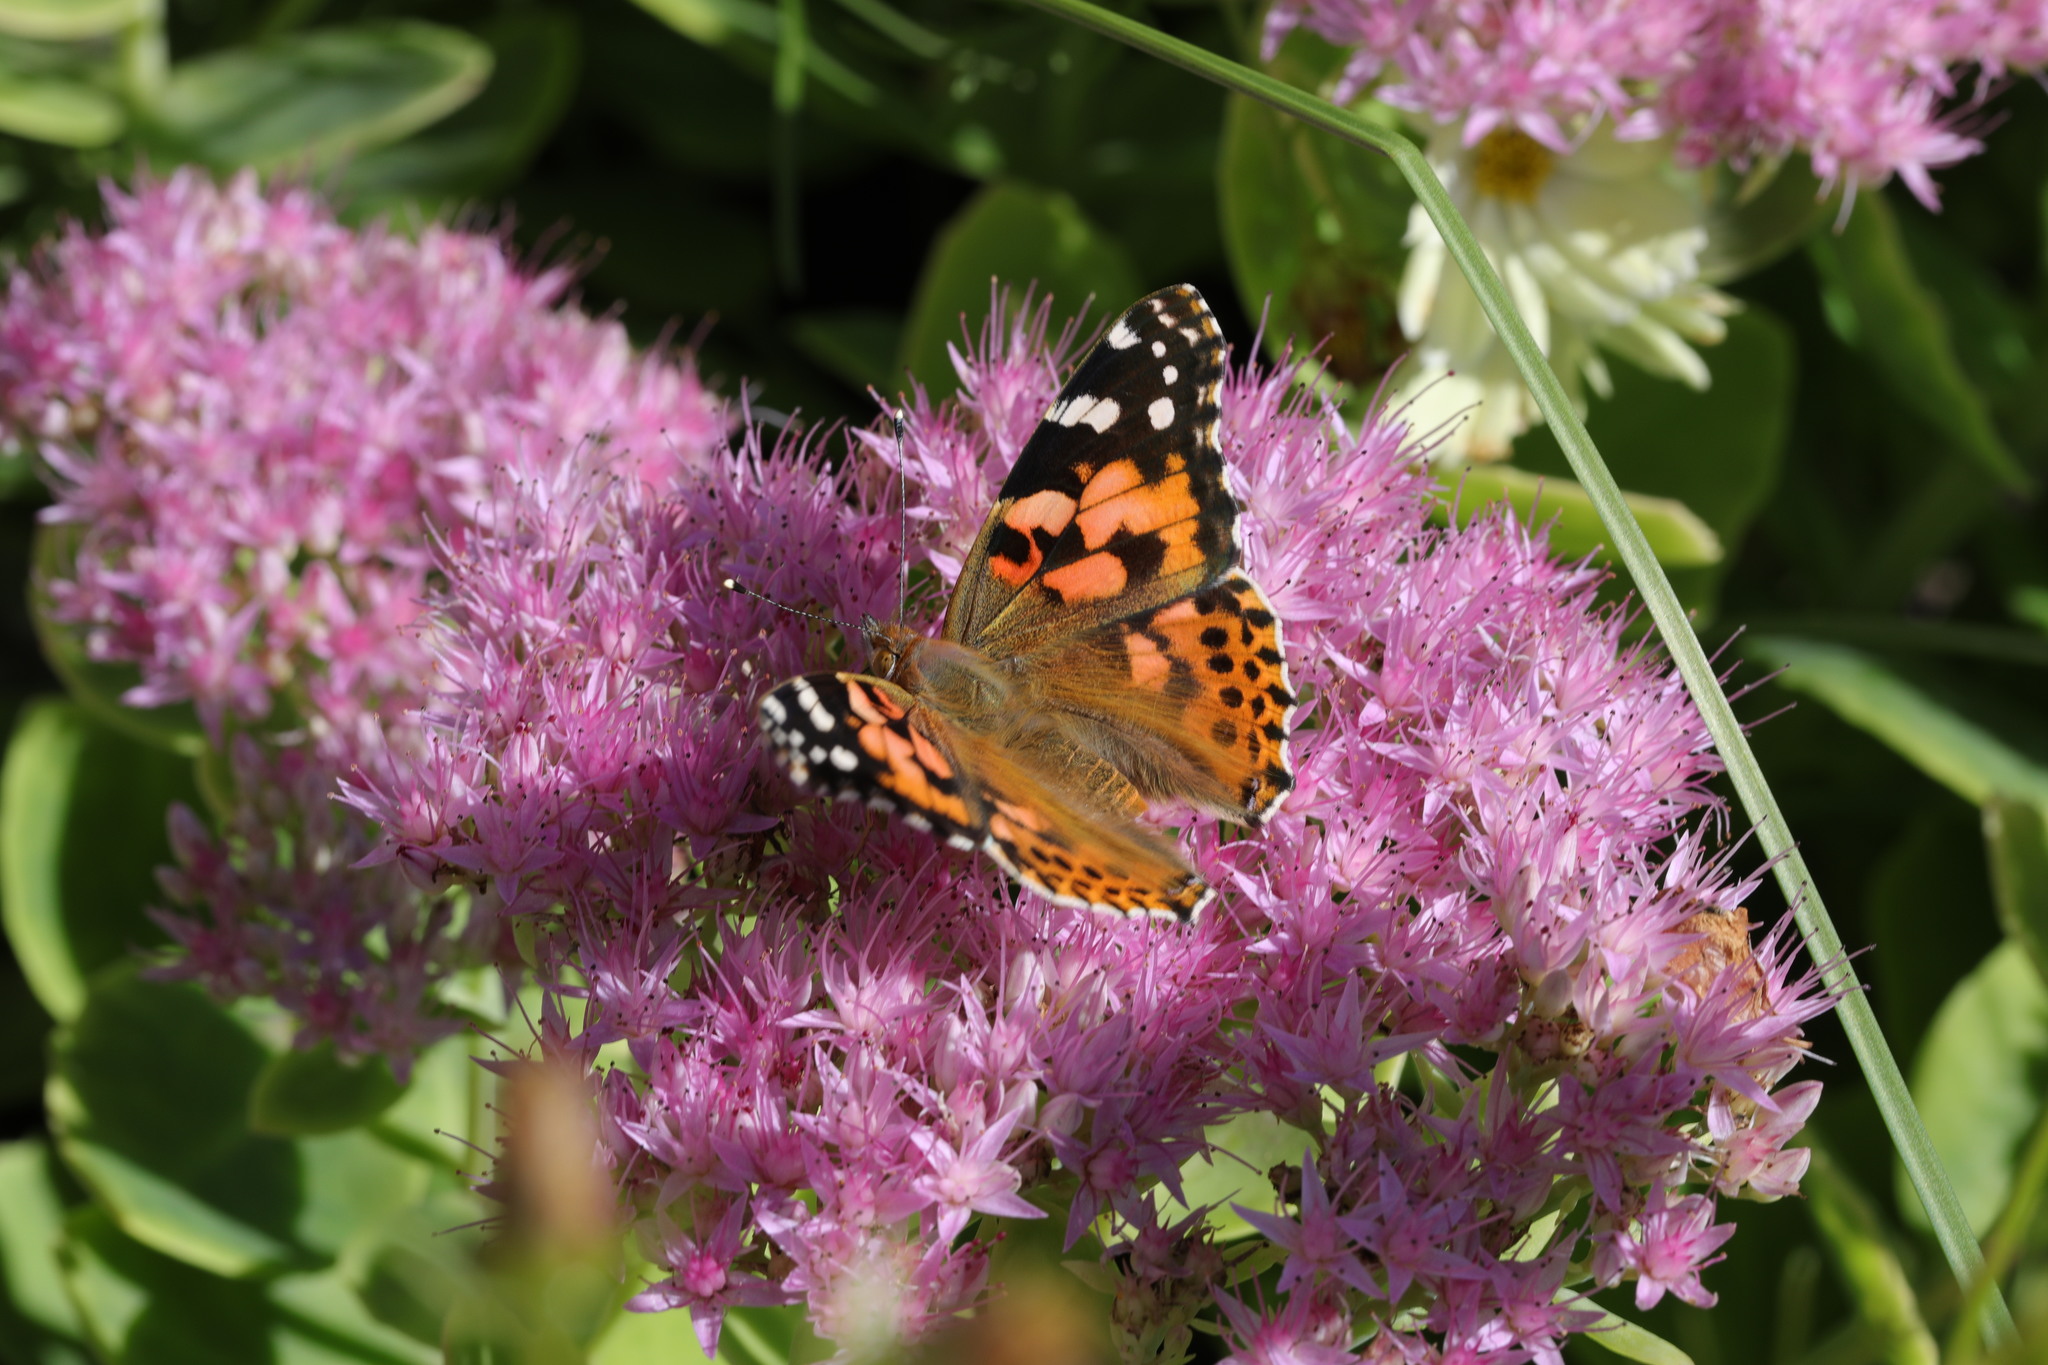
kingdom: Animalia
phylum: Arthropoda
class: Insecta
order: Lepidoptera
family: Nymphalidae
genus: Vanessa
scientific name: Vanessa cardui
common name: Painted lady
